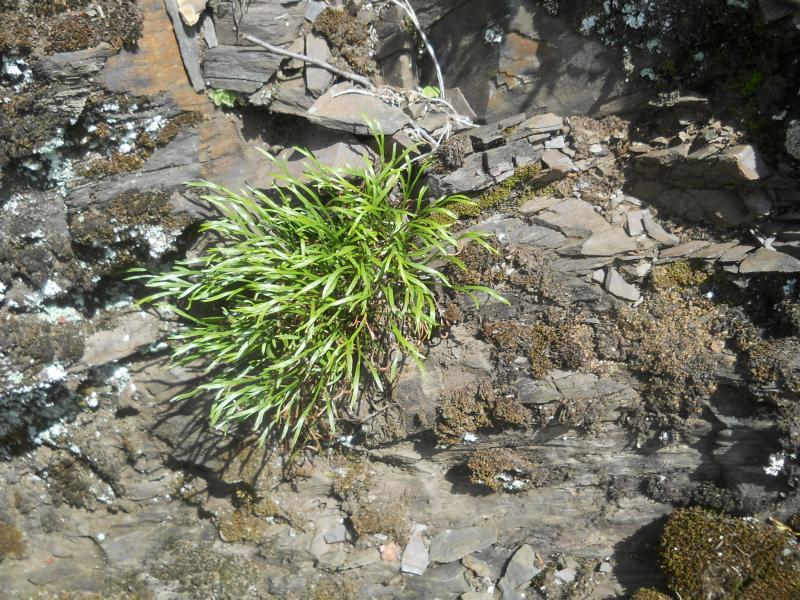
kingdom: Plantae
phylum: Tracheophyta
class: Polypodiopsida
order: Polypodiales
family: Aspleniaceae
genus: Asplenium
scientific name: Asplenium septentrionale
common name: Forked spleenwort
